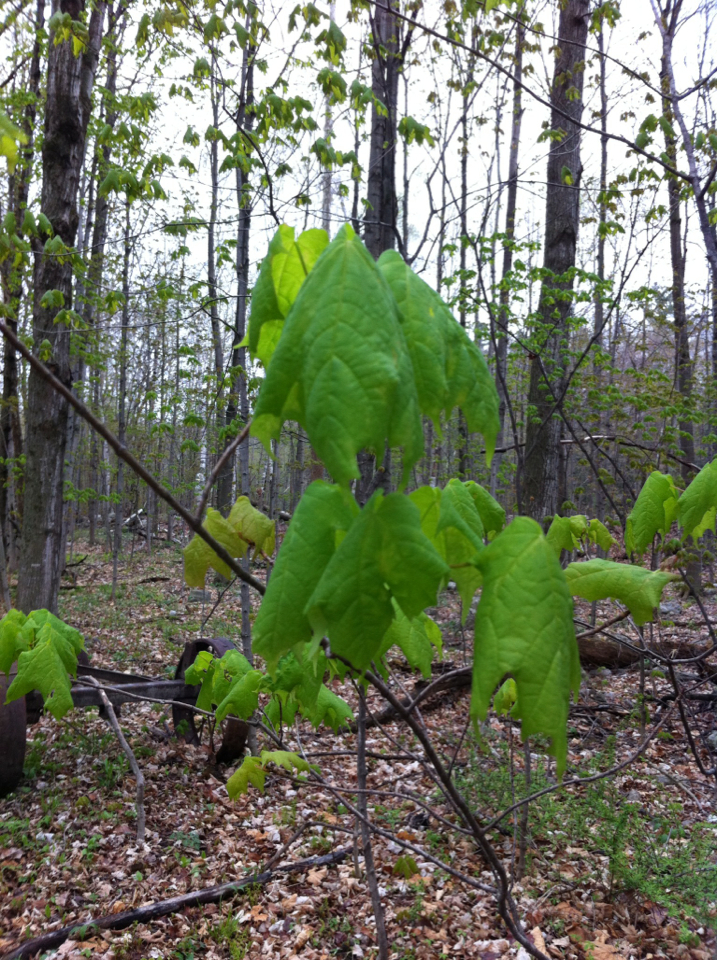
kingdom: Plantae
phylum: Tracheophyta
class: Magnoliopsida
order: Sapindales
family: Sapindaceae
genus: Acer
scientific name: Acer saccharum
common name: Sugar maple
